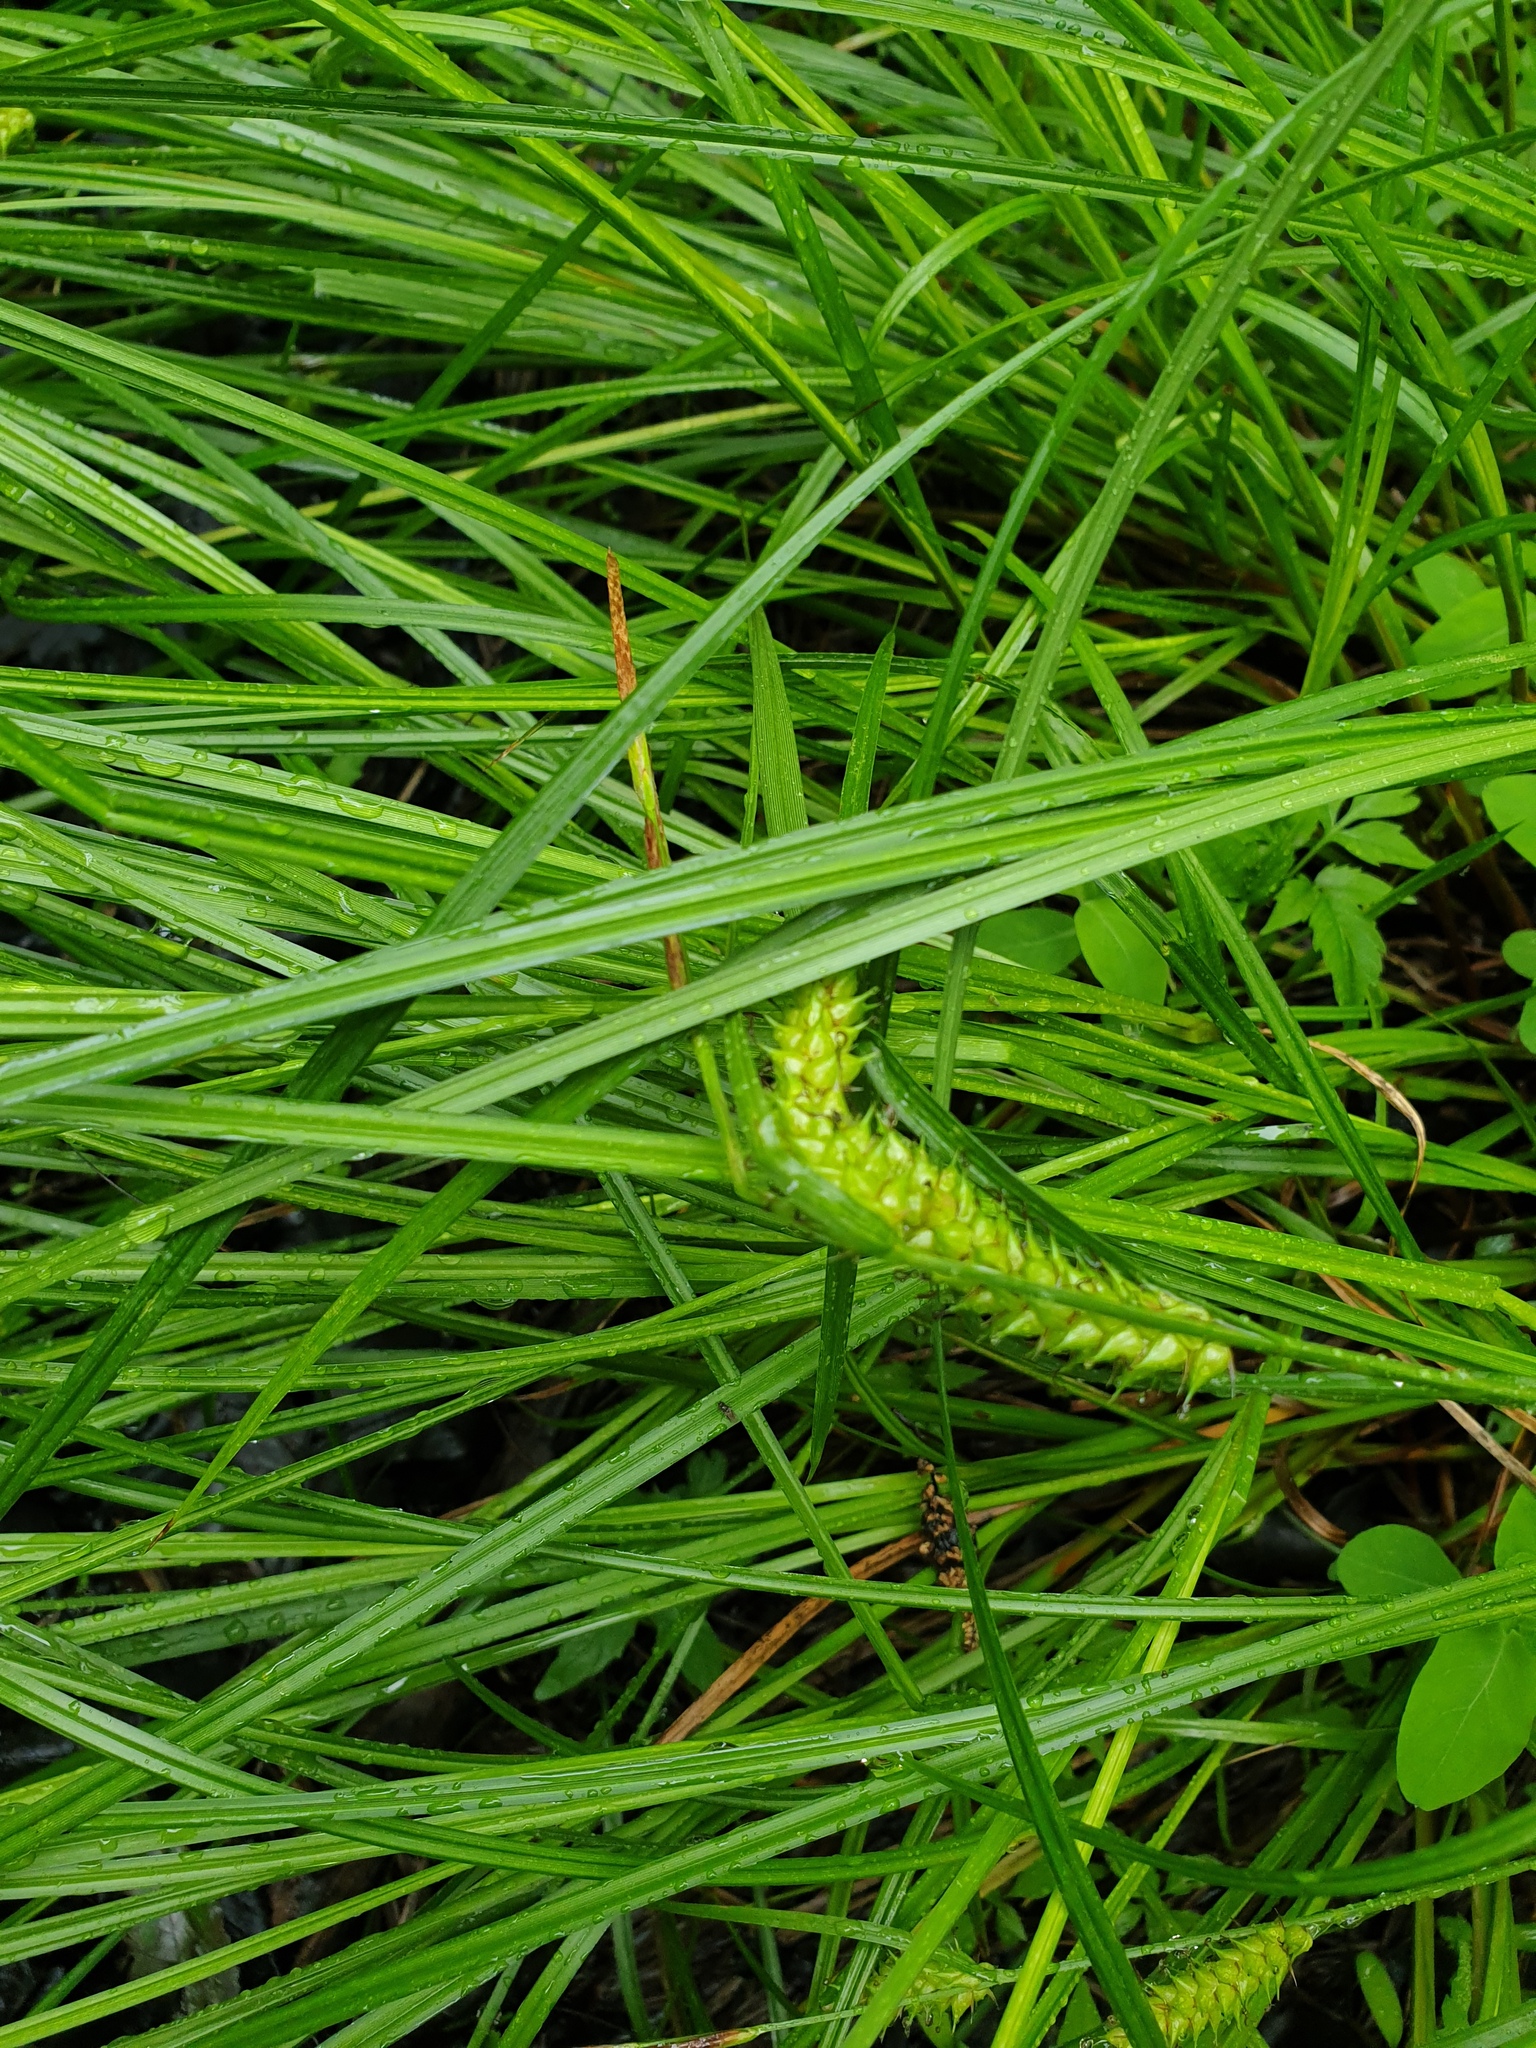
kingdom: Plantae
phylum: Tracheophyta
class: Liliopsida
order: Poales
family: Cyperaceae
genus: Carex
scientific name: Carex vesicaria
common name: Bladder-sedge
